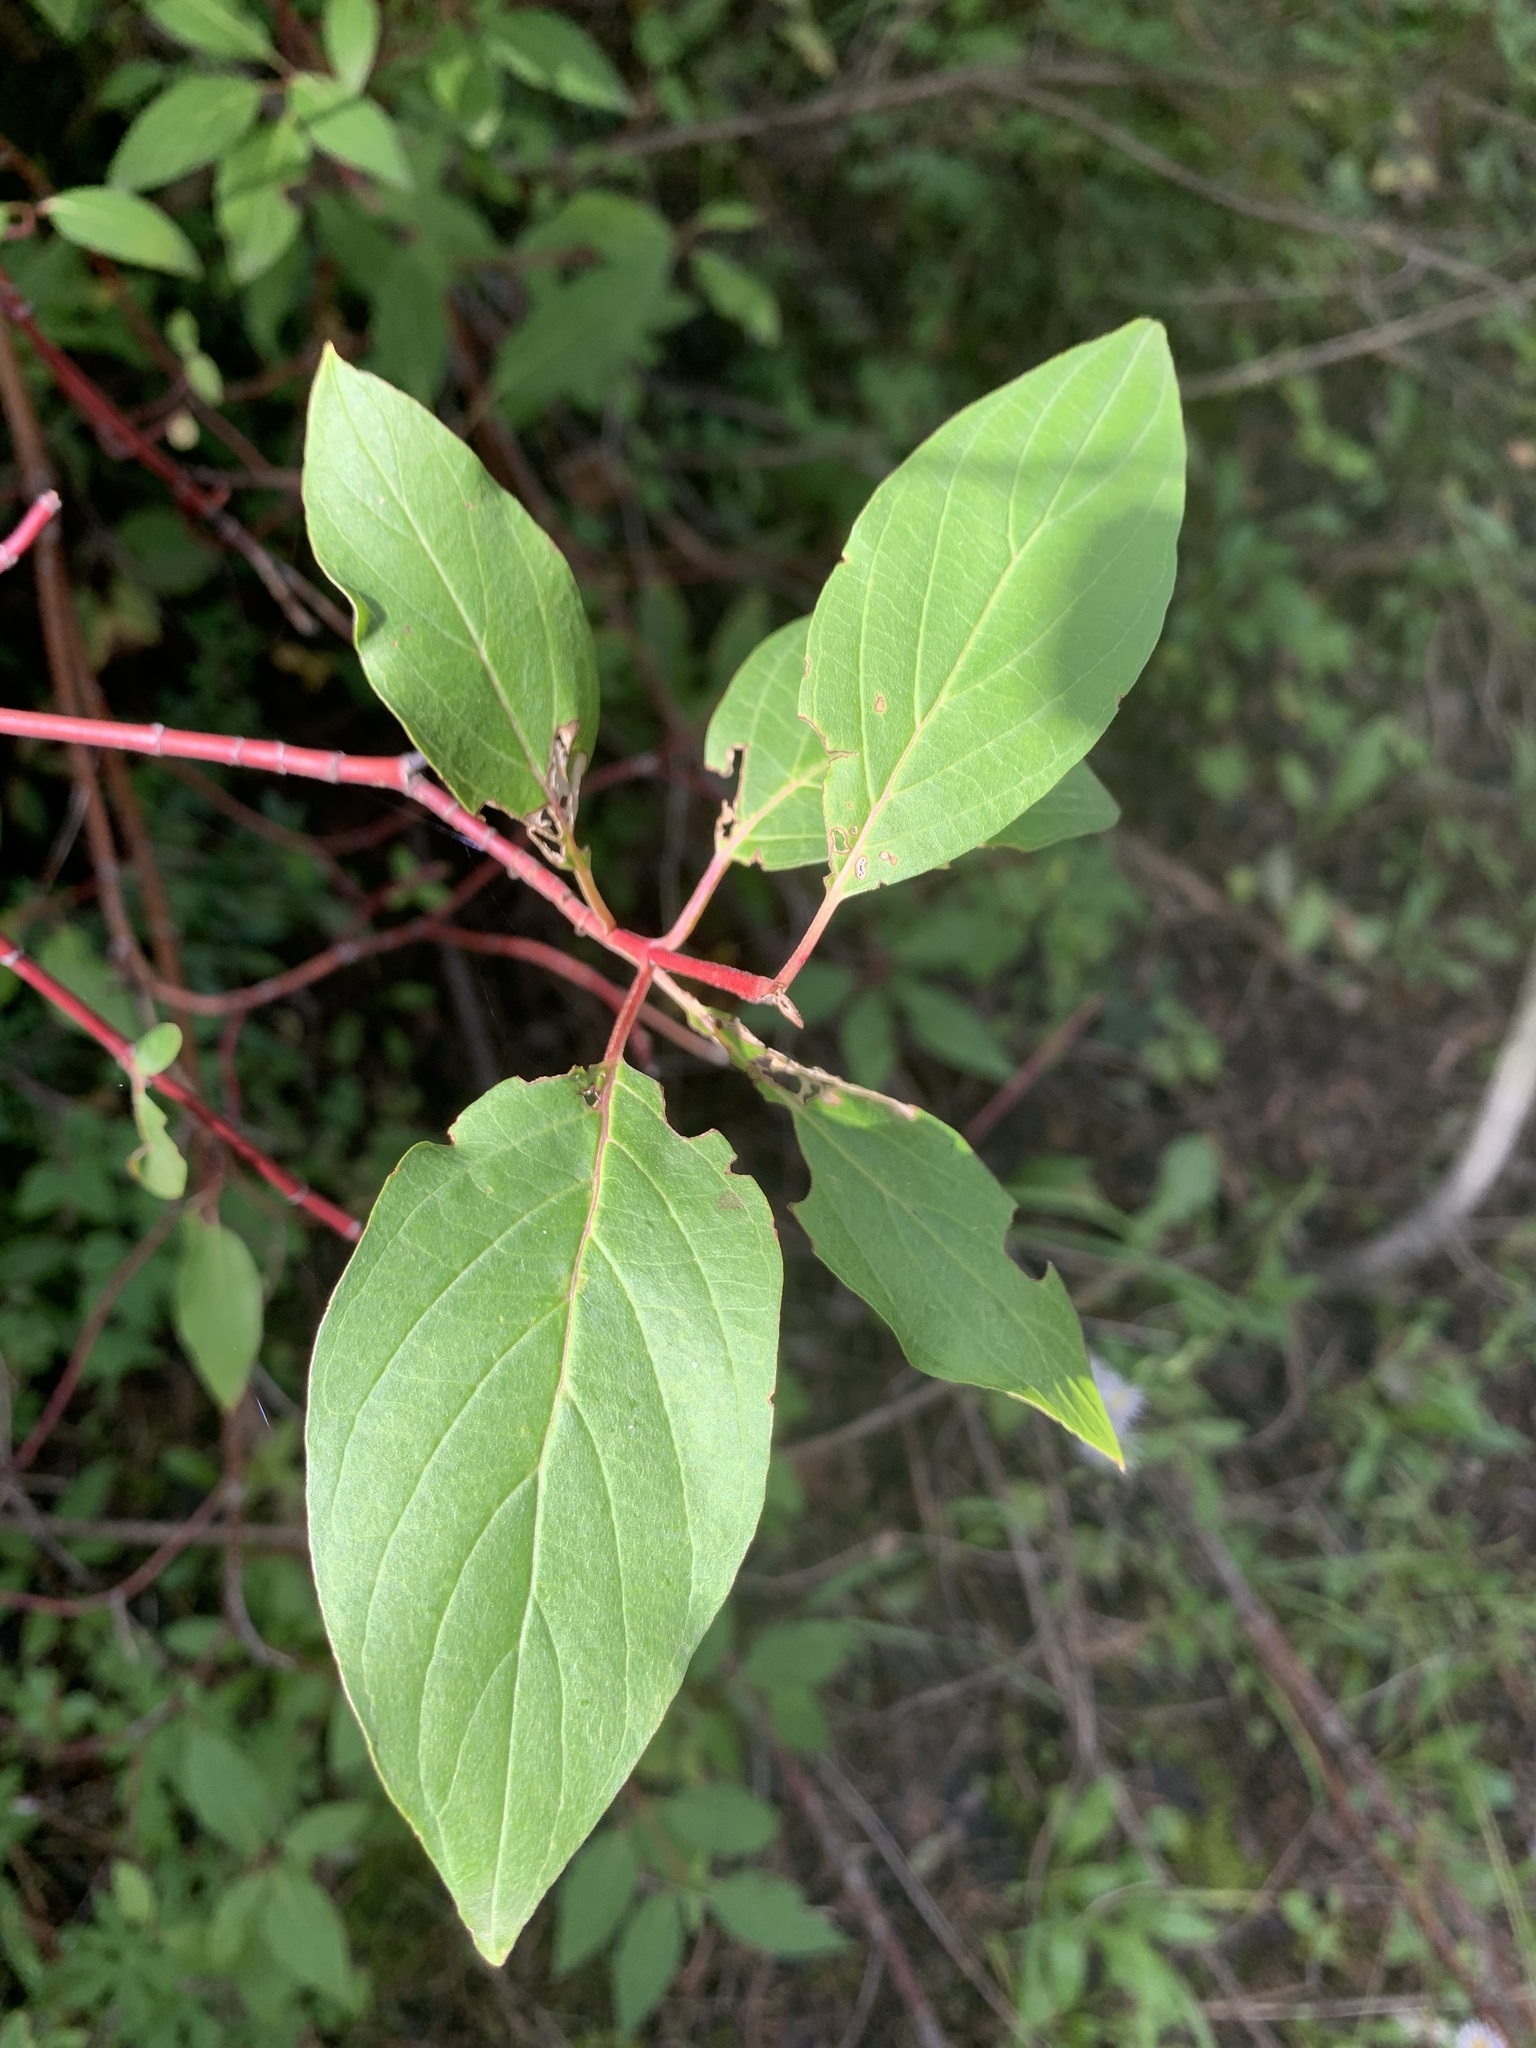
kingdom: Plantae
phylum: Tracheophyta
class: Magnoliopsida
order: Cornales
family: Cornaceae
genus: Cornus
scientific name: Cornus sericea
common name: Red-osier dogwood
